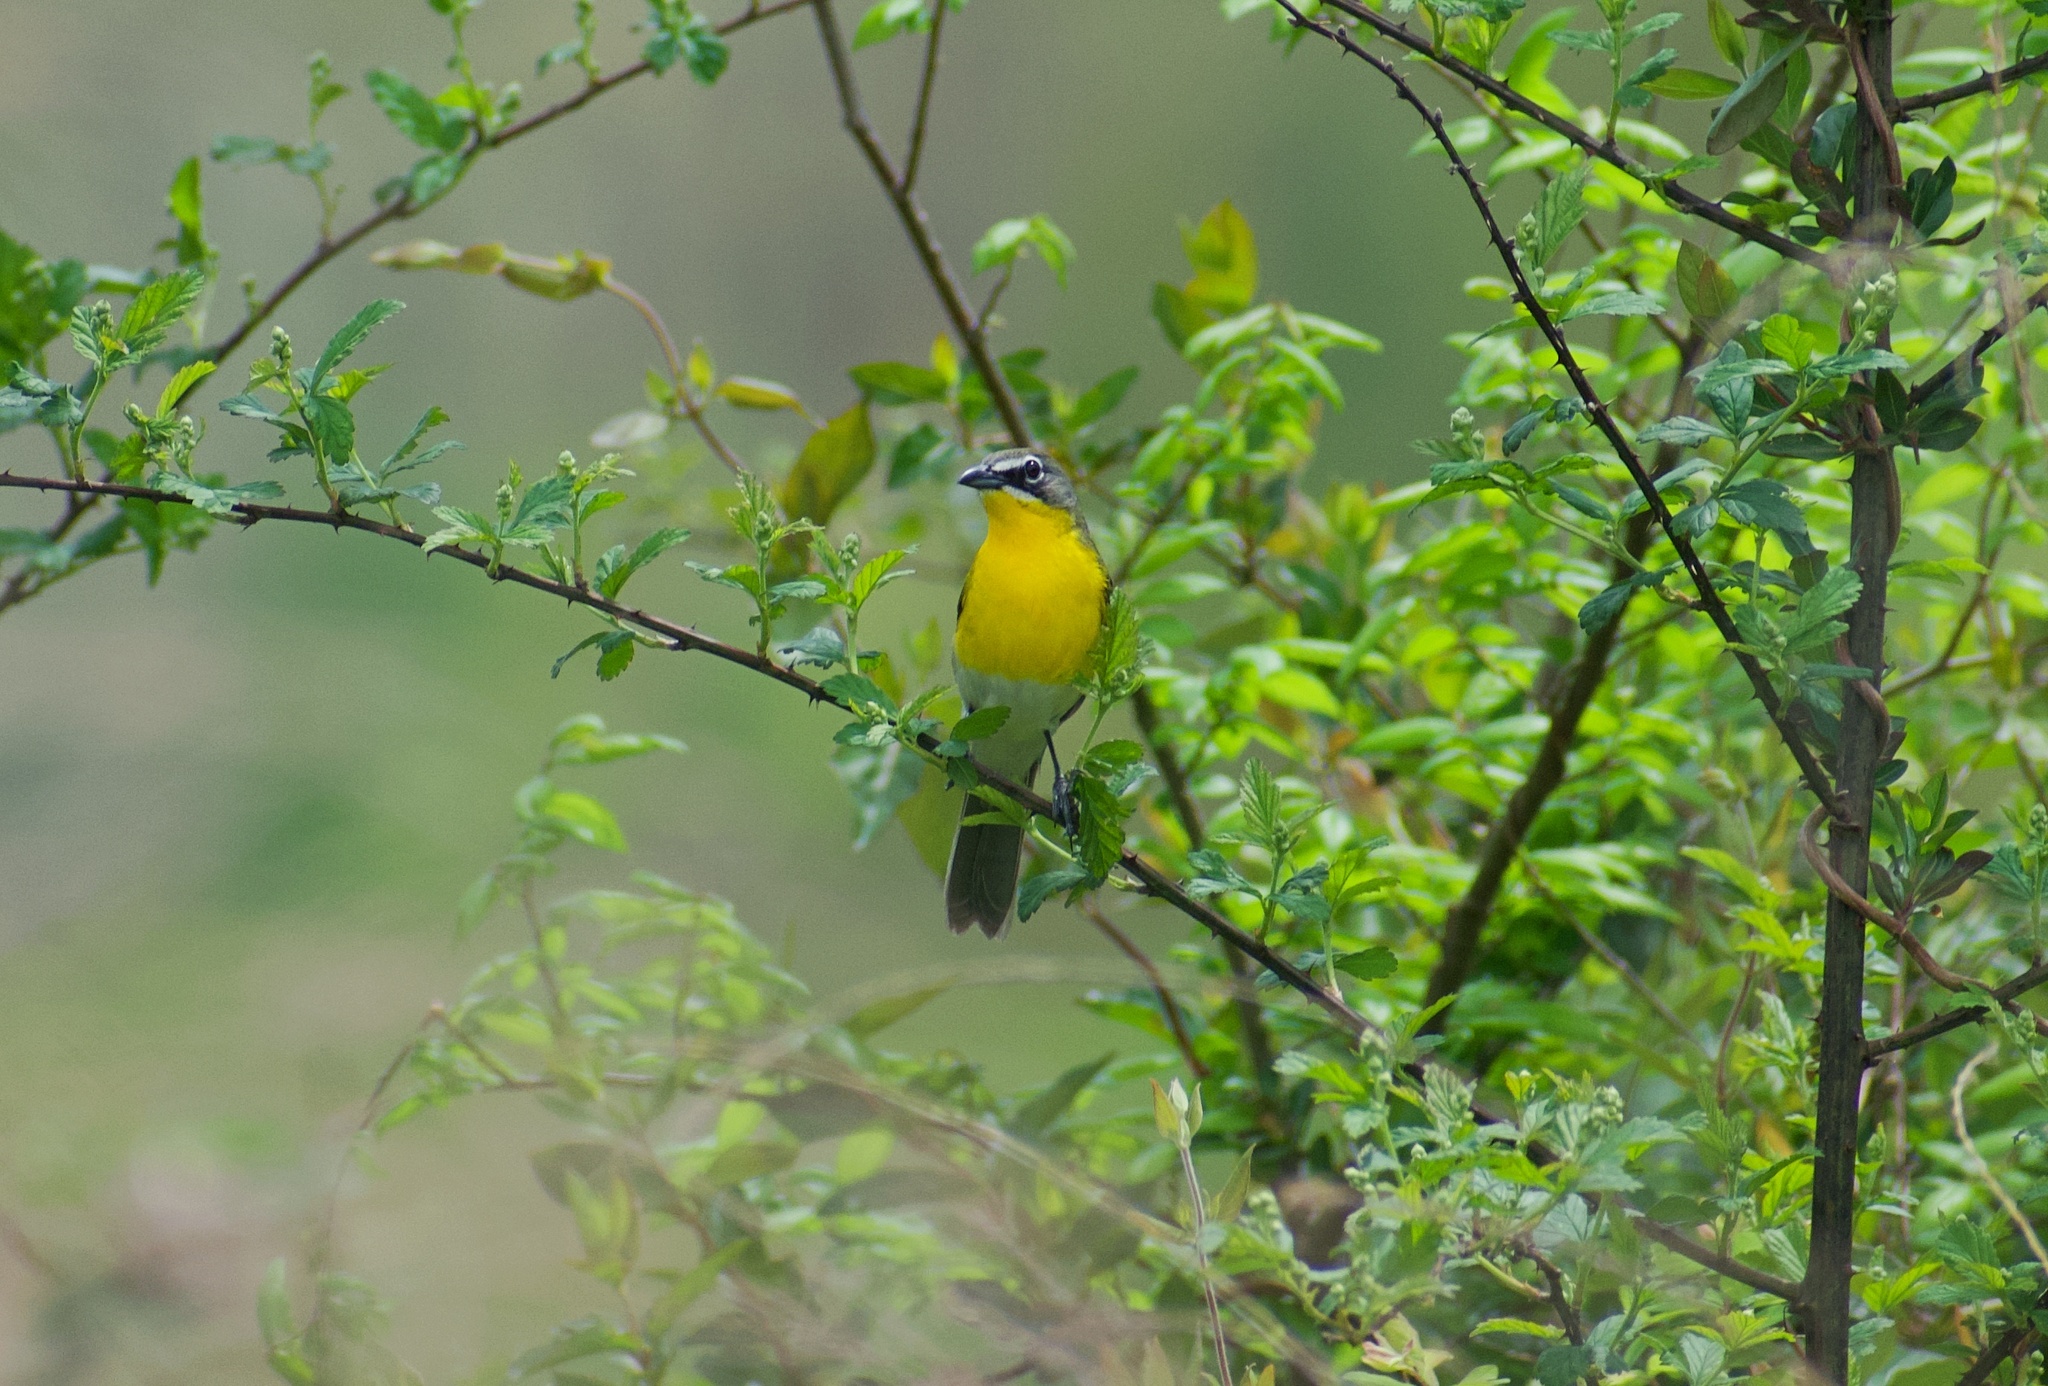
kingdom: Animalia
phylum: Chordata
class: Aves
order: Passeriformes
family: Parulidae
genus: Icteria
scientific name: Icteria virens
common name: Yellow-breasted chat
